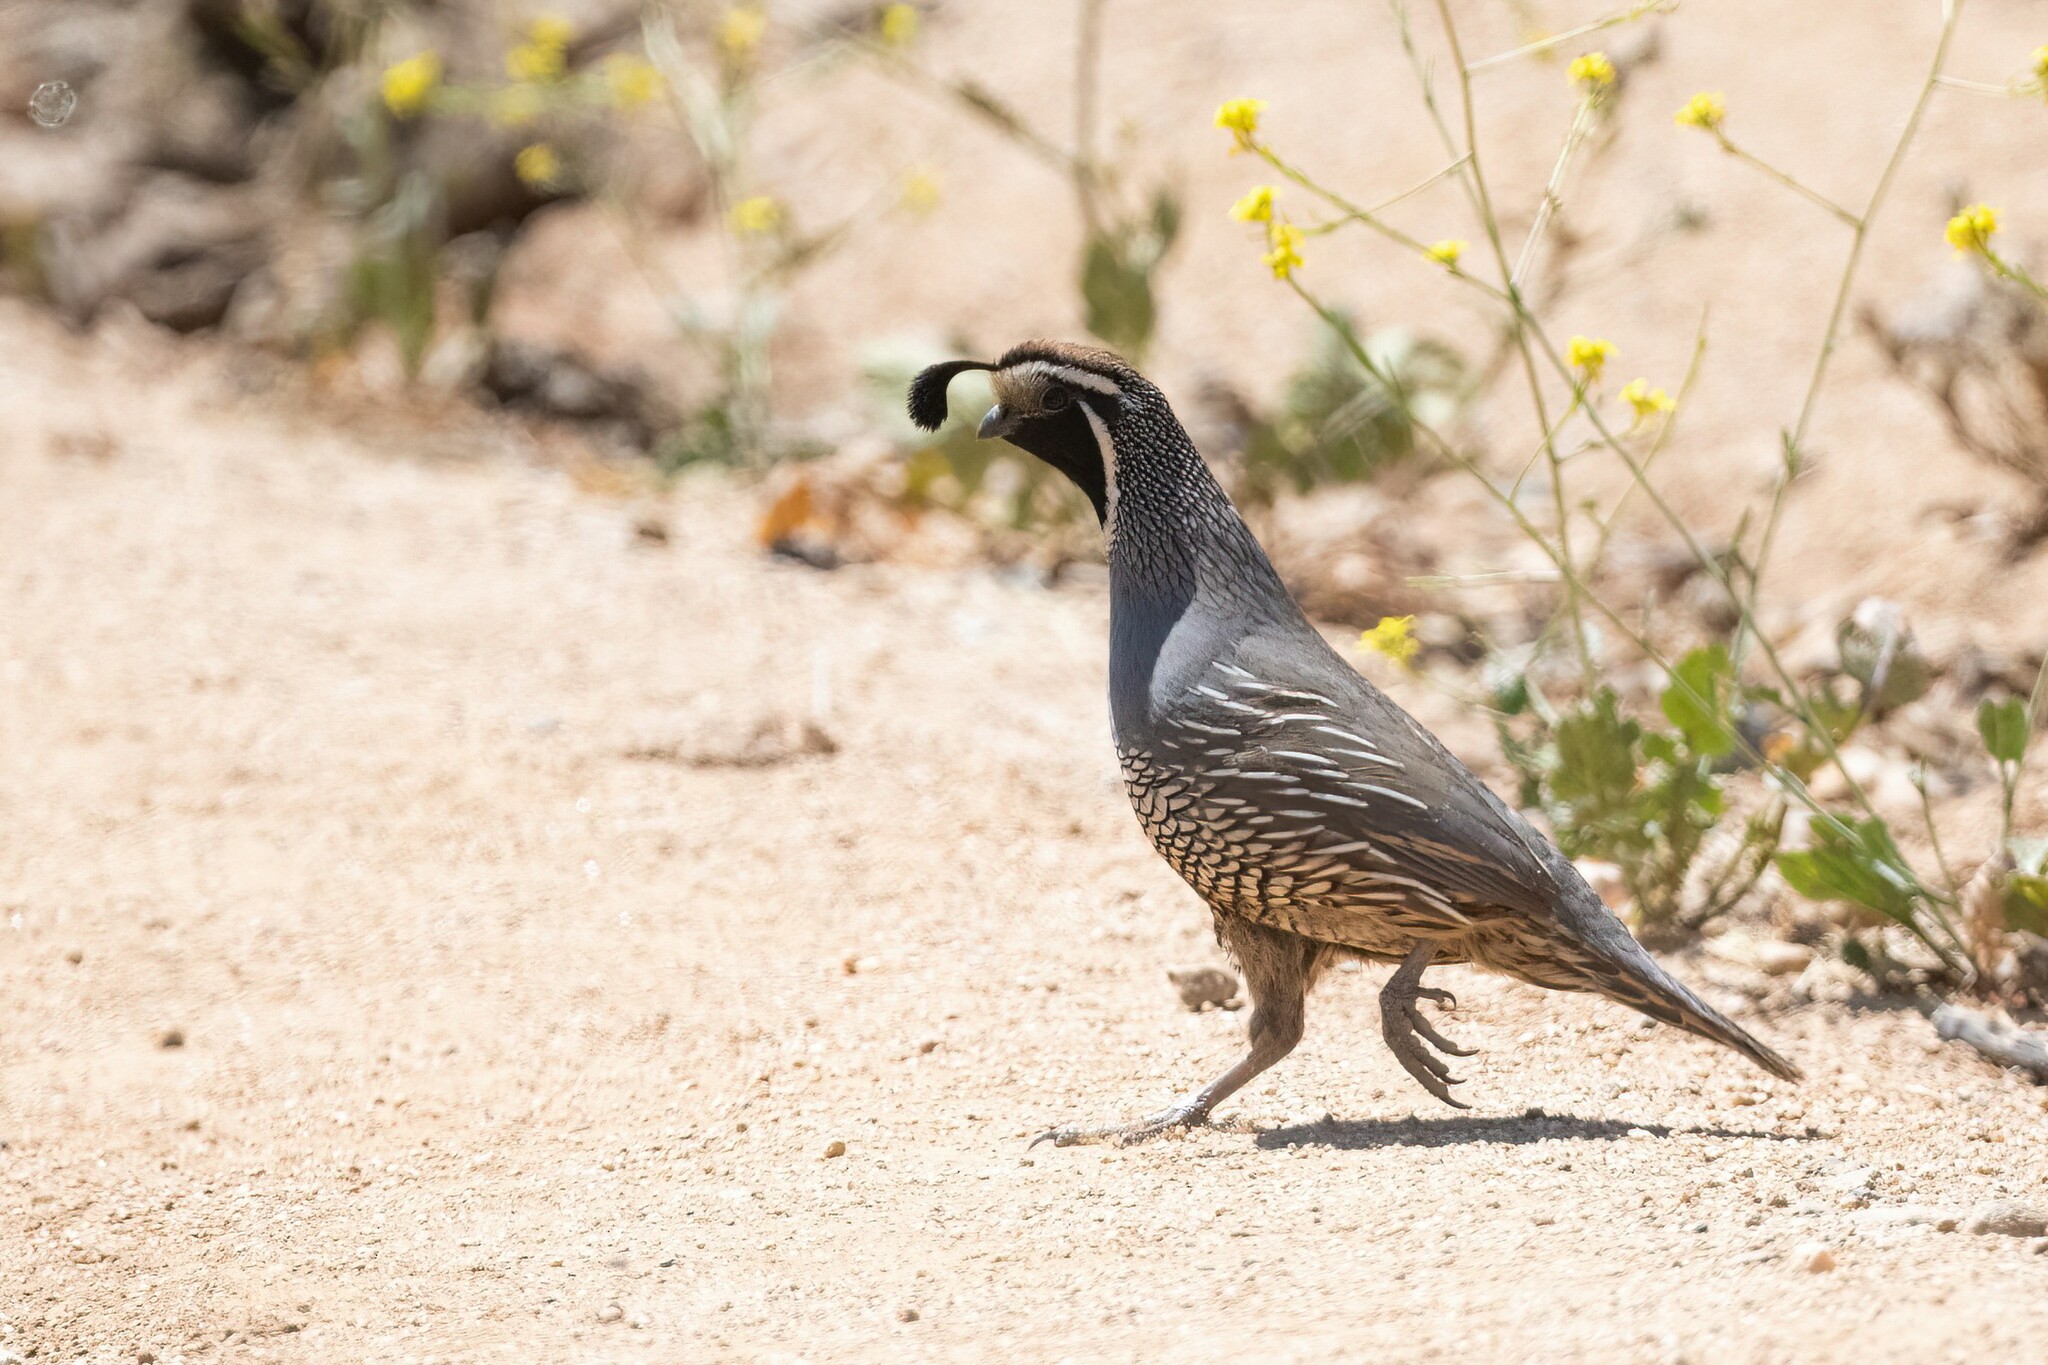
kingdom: Animalia
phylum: Chordata
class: Aves
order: Galliformes
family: Odontophoridae
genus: Callipepla
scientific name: Callipepla californica
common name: California quail
